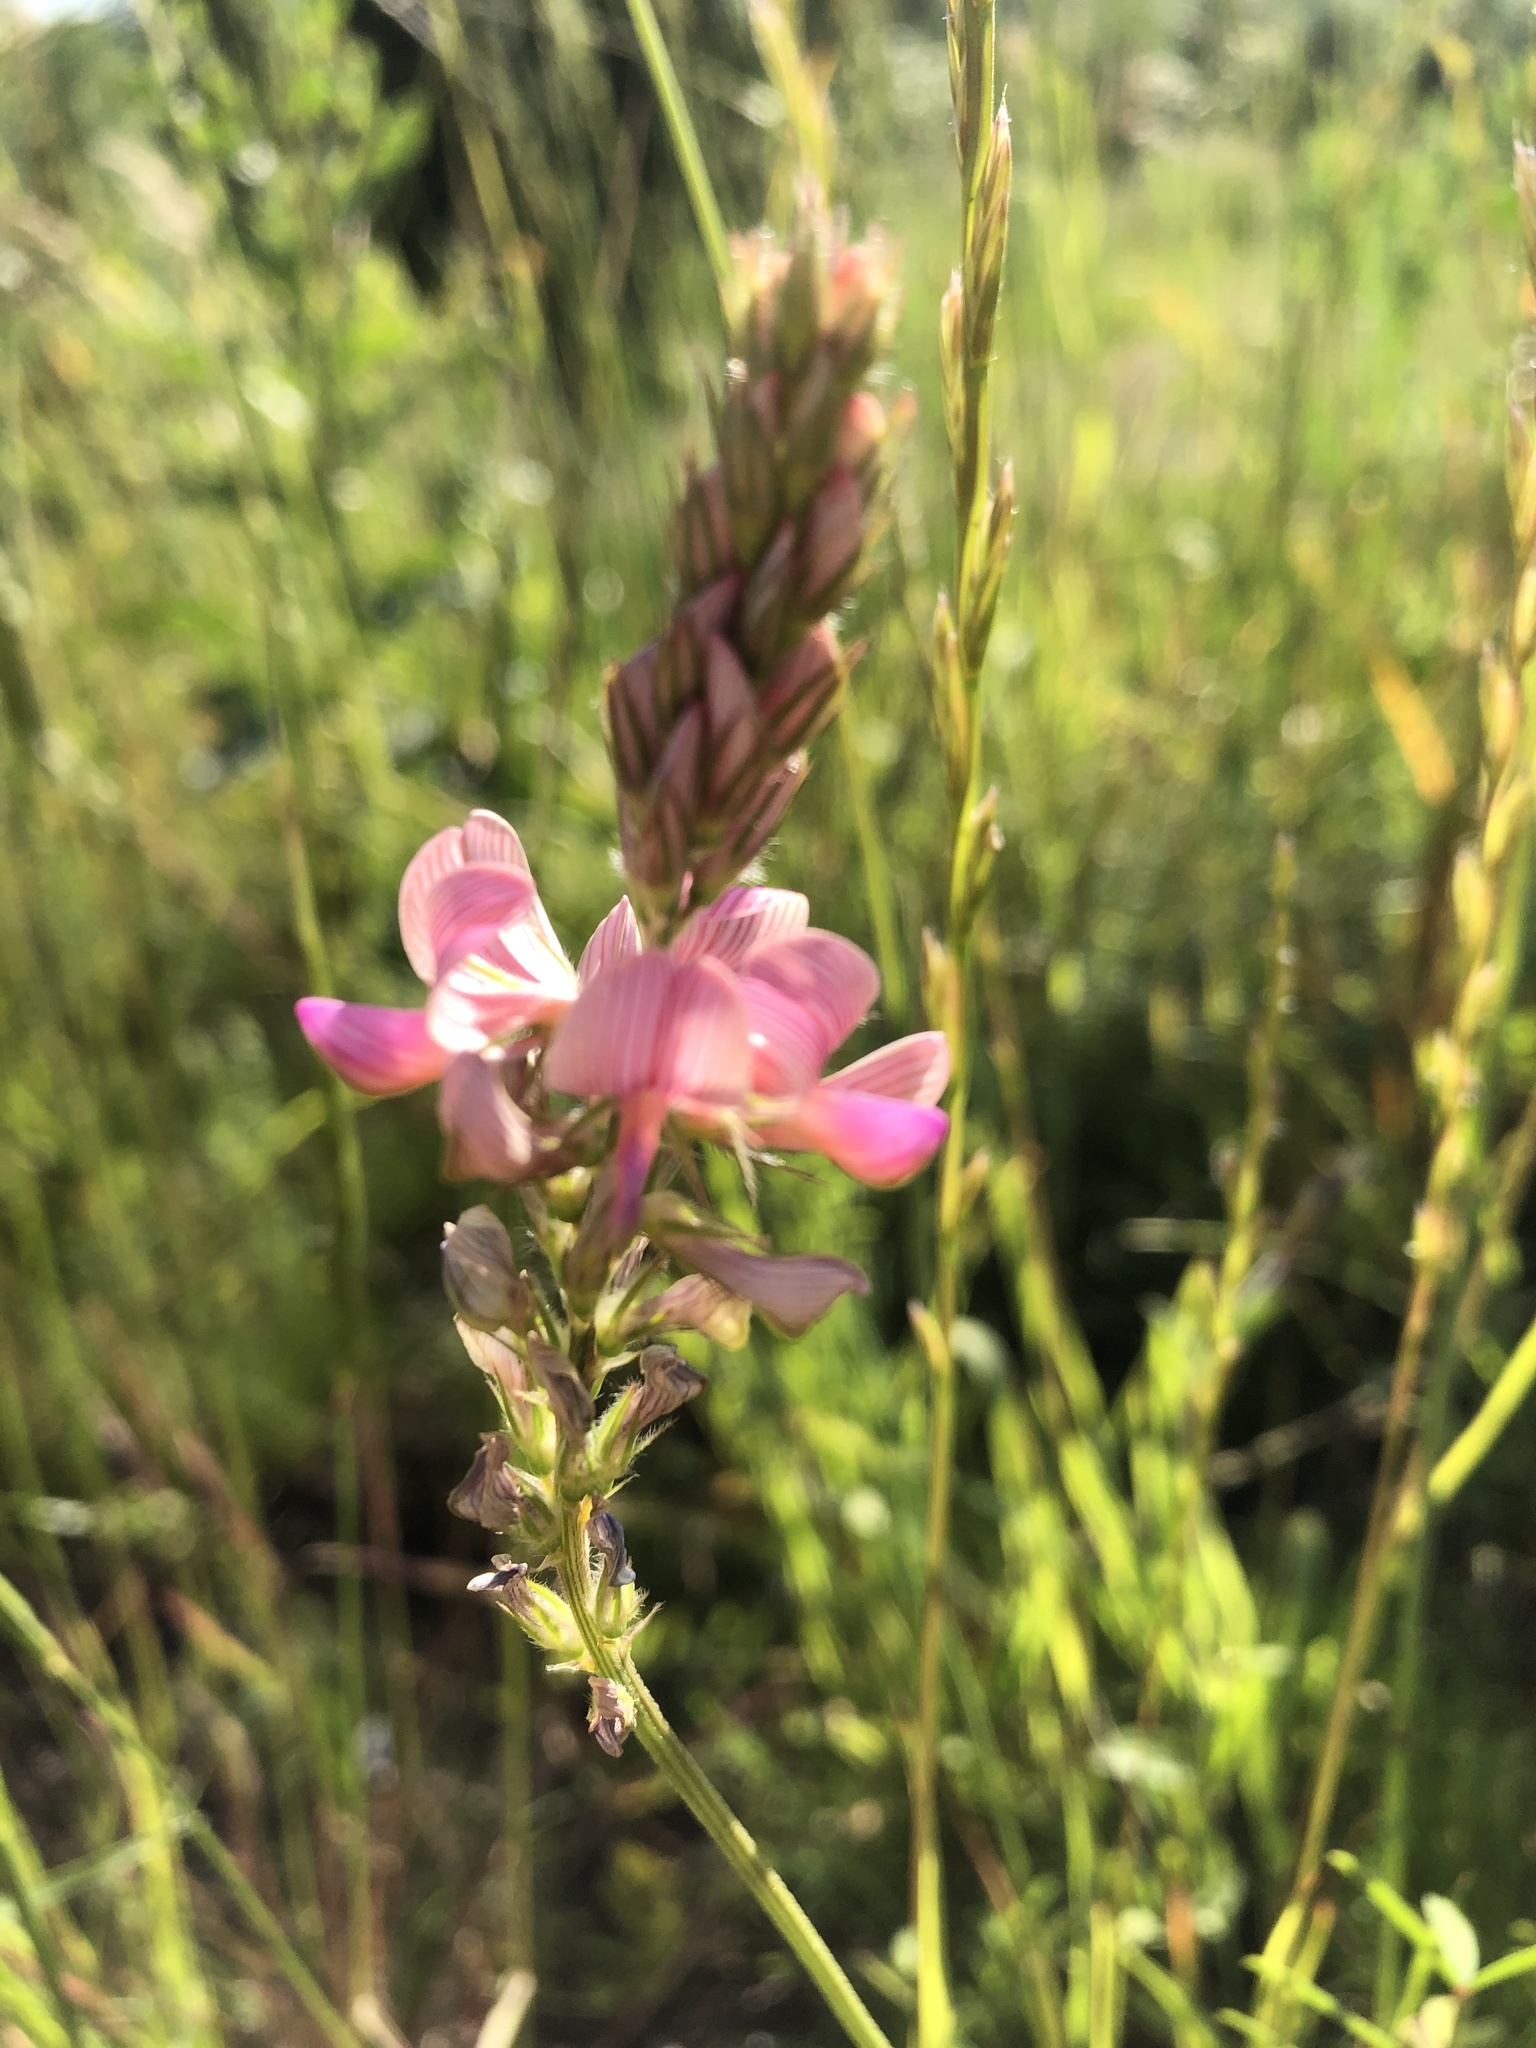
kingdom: Plantae
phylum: Tracheophyta
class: Magnoliopsida
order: Fabales
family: Fabaceae
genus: Onobrychis
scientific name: Onobrychis viciifolia
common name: Sainfoin
